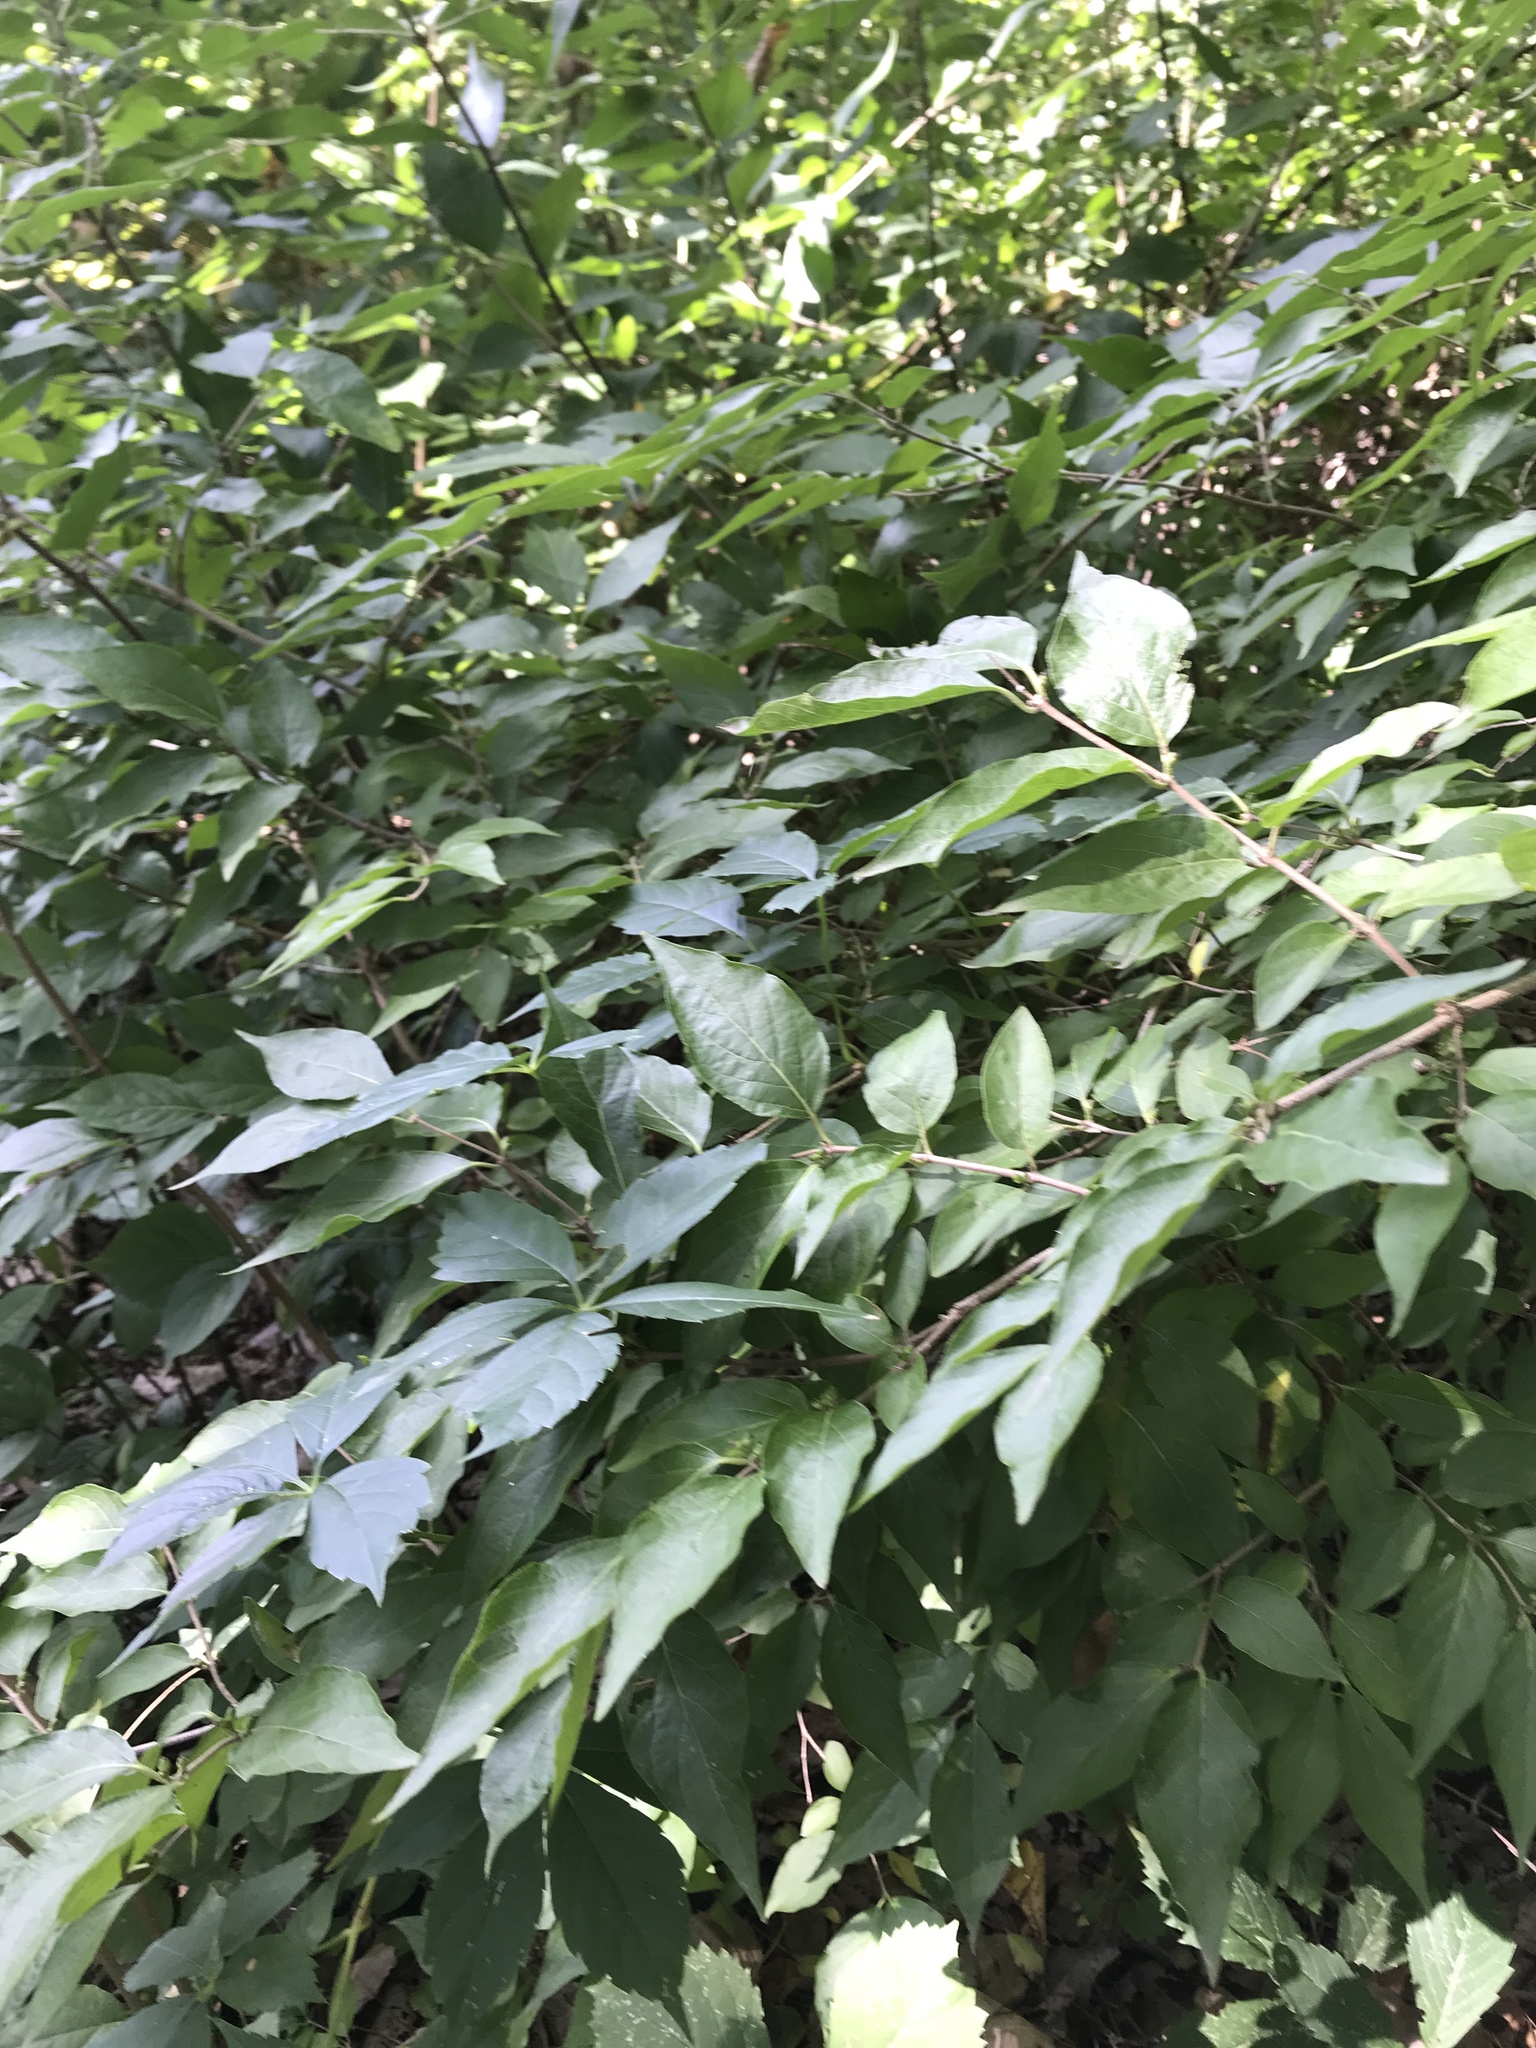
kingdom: Plantae
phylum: Tracheophyta
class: Magnoliopsida
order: Dipsacales
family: Caprifoliaceae
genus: Lonicera
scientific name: Lonicera maackii
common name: Amur honeysuckle
